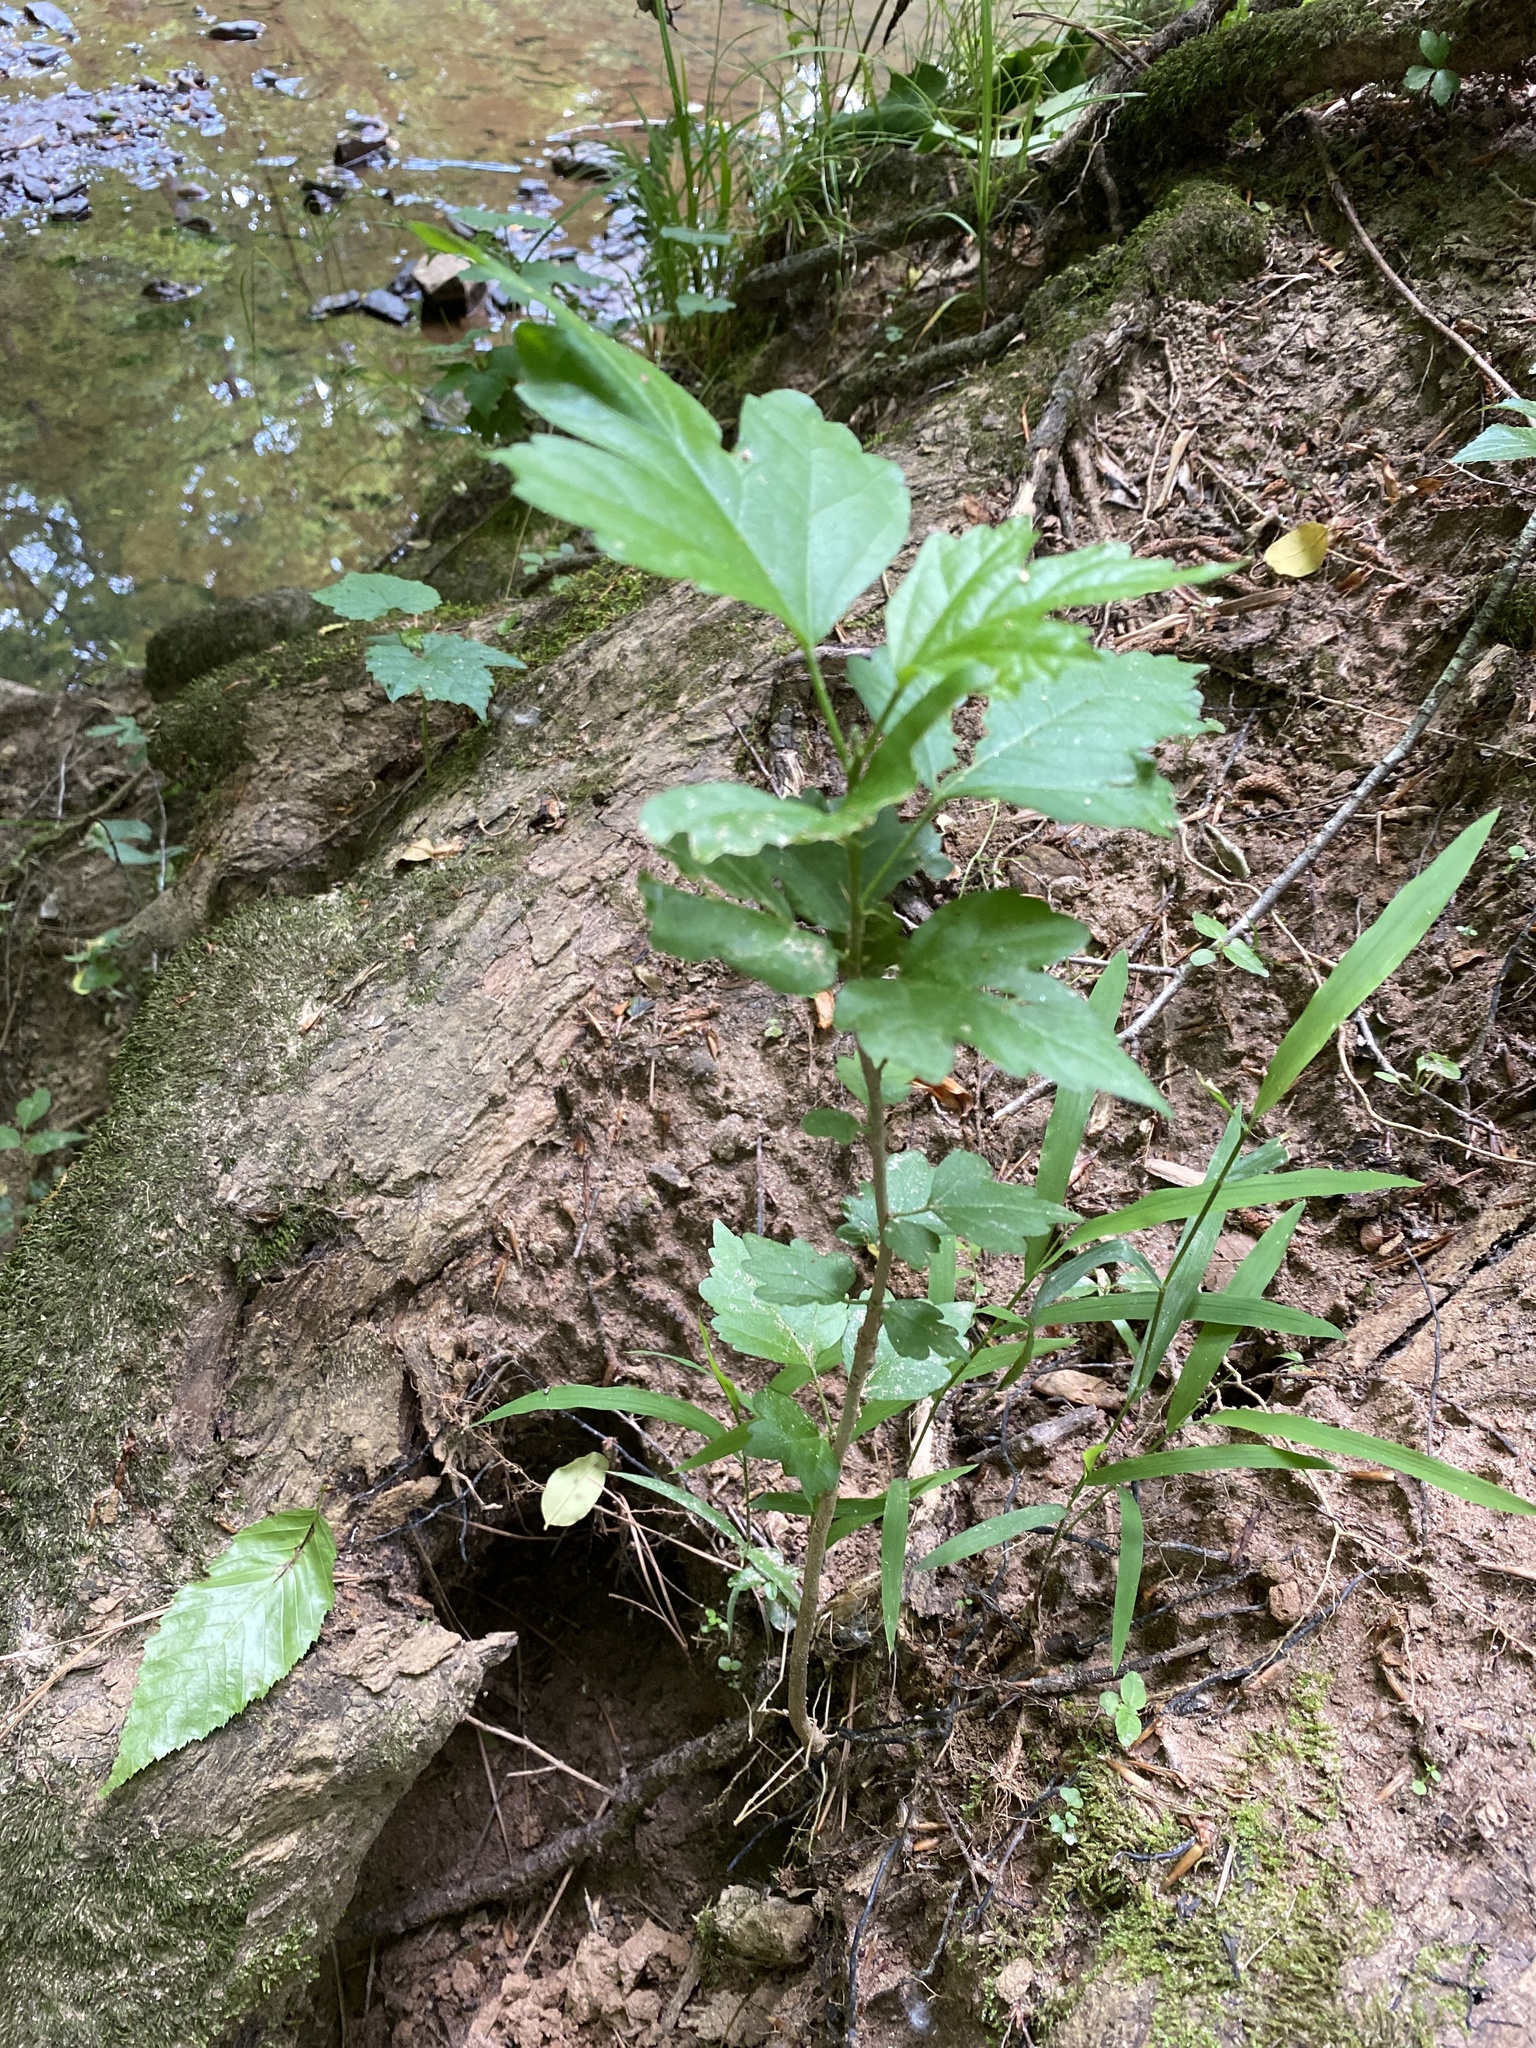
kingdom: Plantae
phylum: Tracheophyta
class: Magnoliopsida
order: Malvales
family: Malvaceae
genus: Hibiscus
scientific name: Hibiscus syriacus
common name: Syrian ketmia
